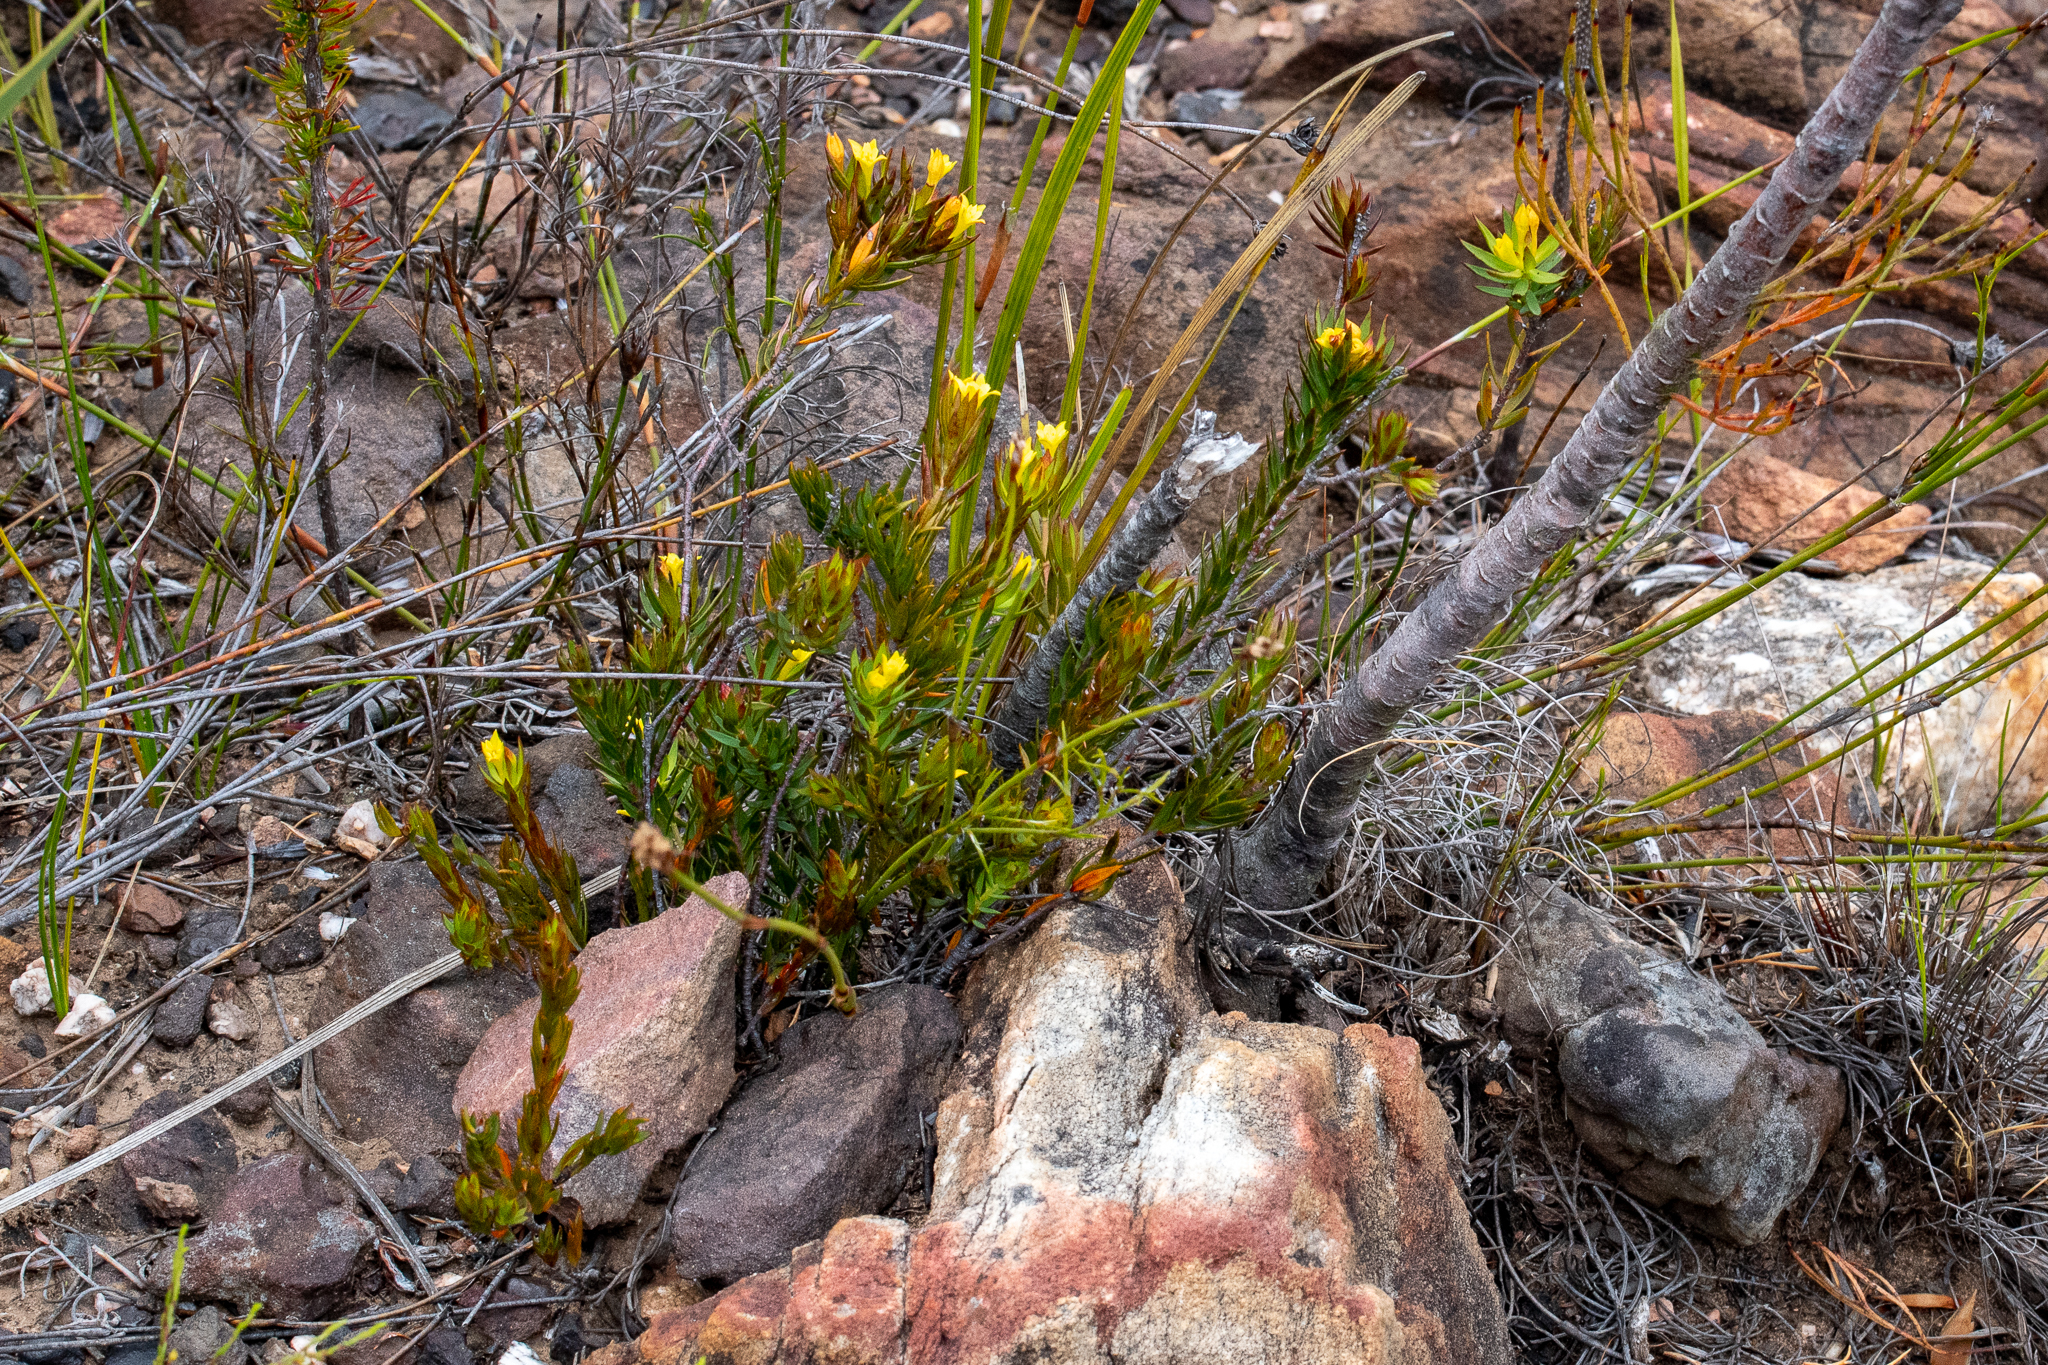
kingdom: Plantae
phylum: Tracheophyta
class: Magnoliopsida
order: Malvales
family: Thymelaeaceae
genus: Gnidia
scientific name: Gnidia juniperifolia
